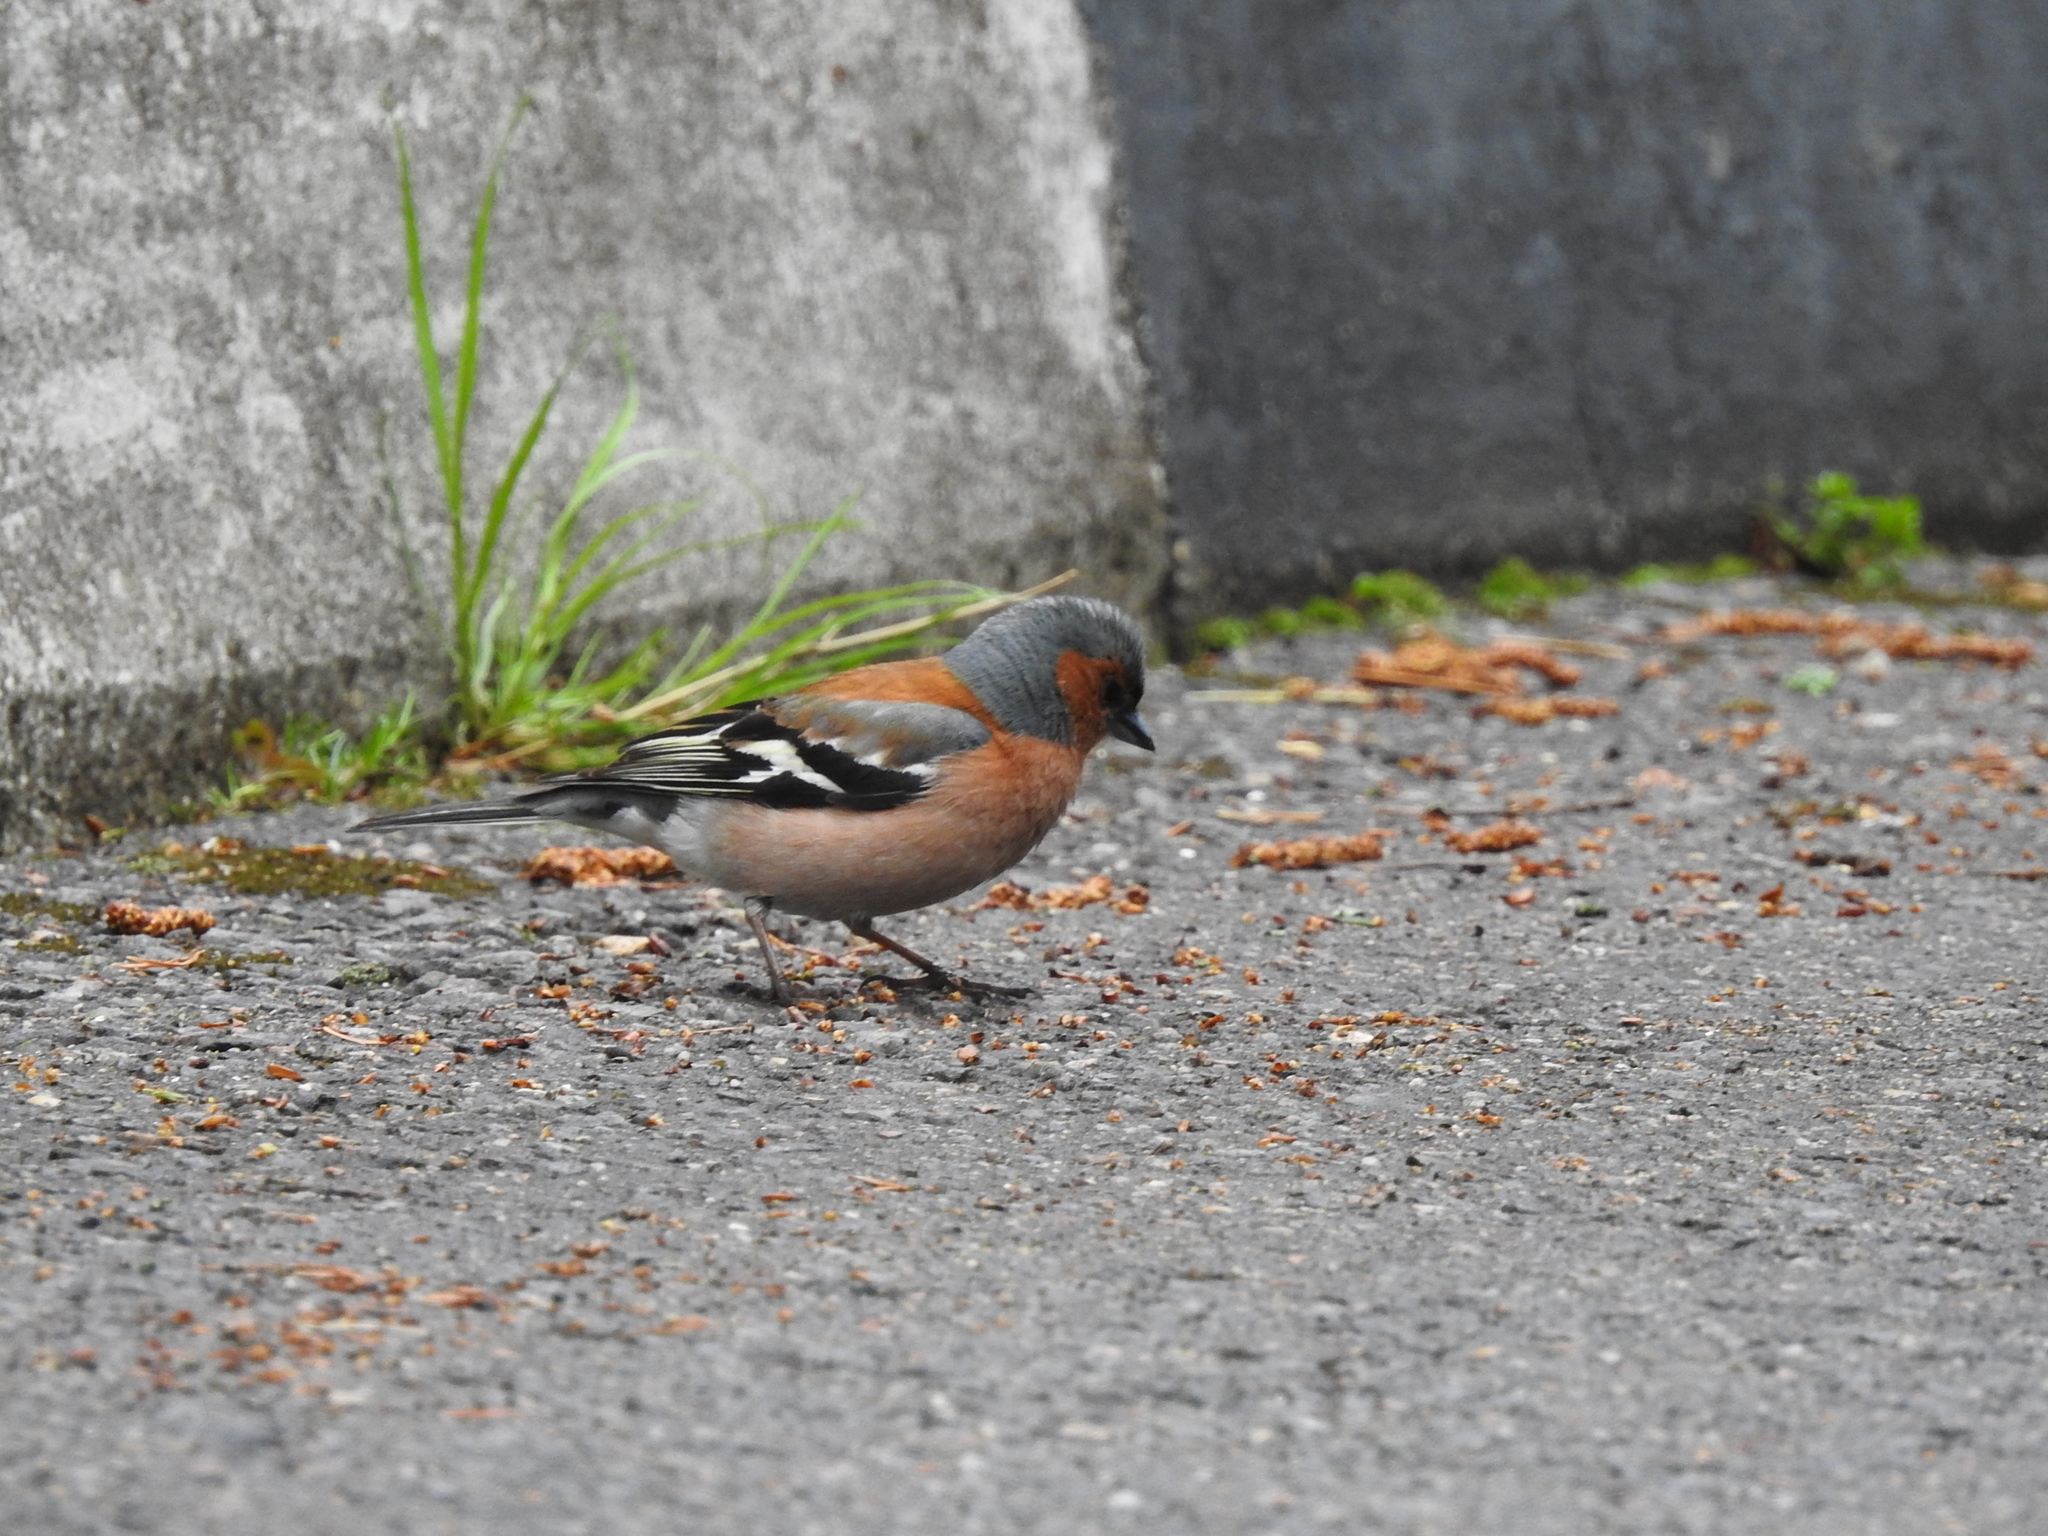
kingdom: Animalia
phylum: Chordata
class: Aves
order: Passeriformes
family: Fringillidae
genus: Fringilla
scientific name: Fringilla coelebs
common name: Common chaffinch
